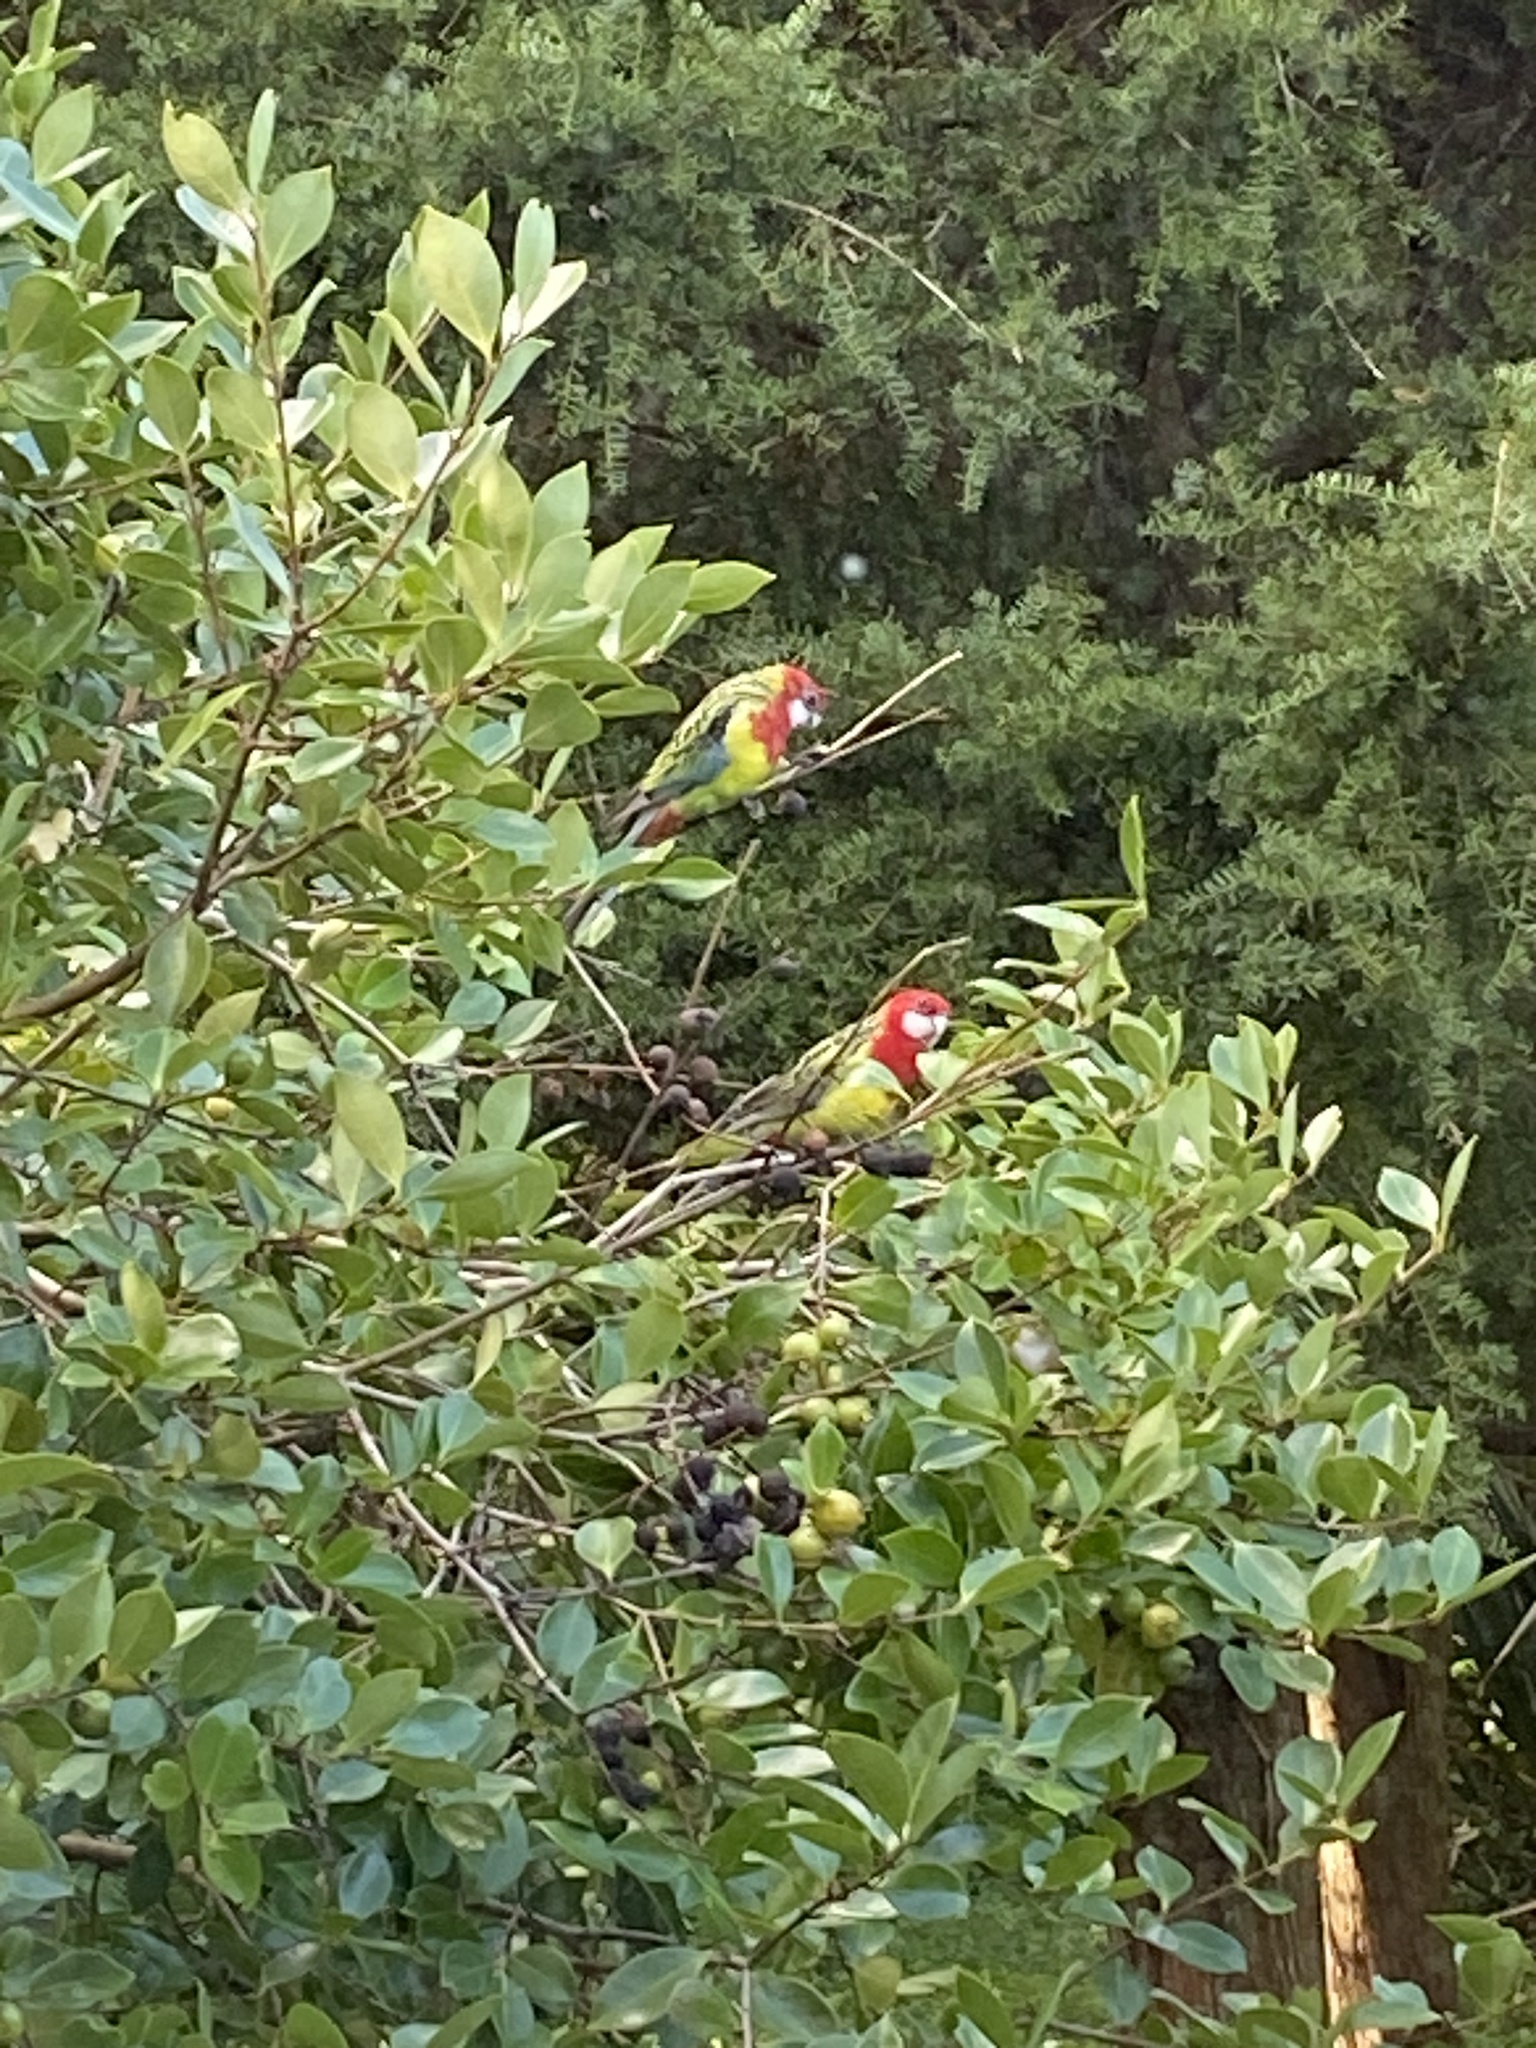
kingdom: Animalia
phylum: Chordata
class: Aves
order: Psittaciformes
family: Psittacidae
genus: Platycercus
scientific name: Platycercus eximius
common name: Eastern rosella
